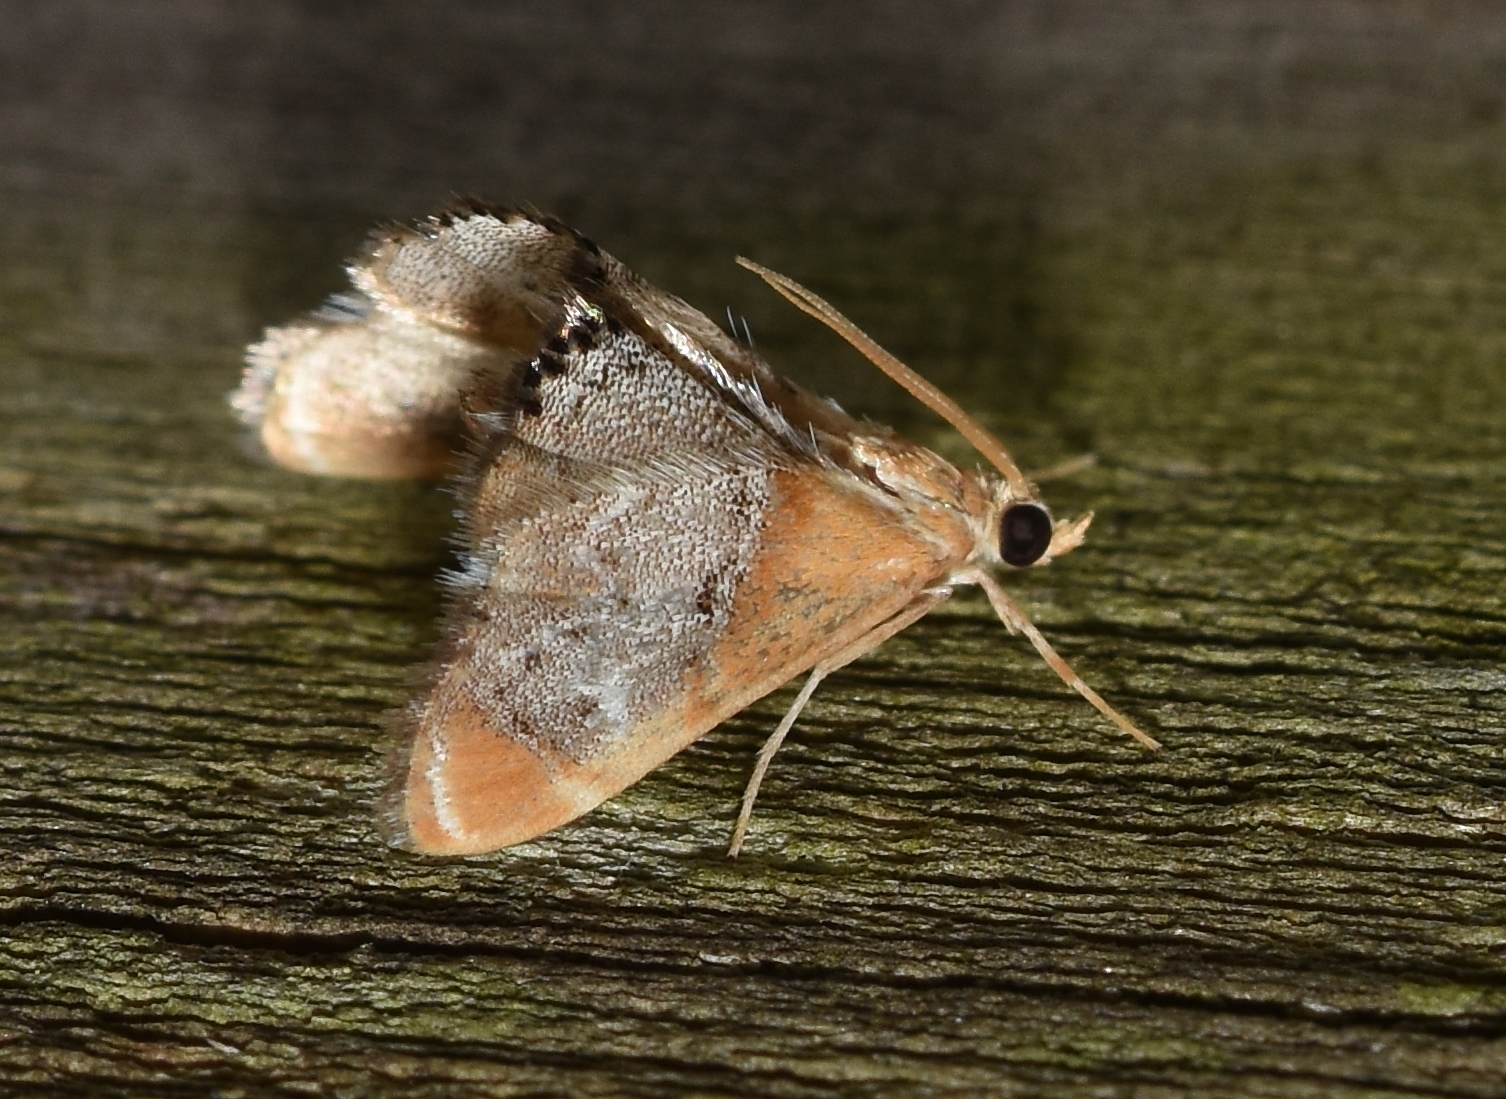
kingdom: Animalia
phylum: Arthropoda
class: Insecta
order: Lepidoptera
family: Crambidae
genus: Chalcoela
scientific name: Chalcoela iphitalis
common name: Sooty-winged chalcoela moth
